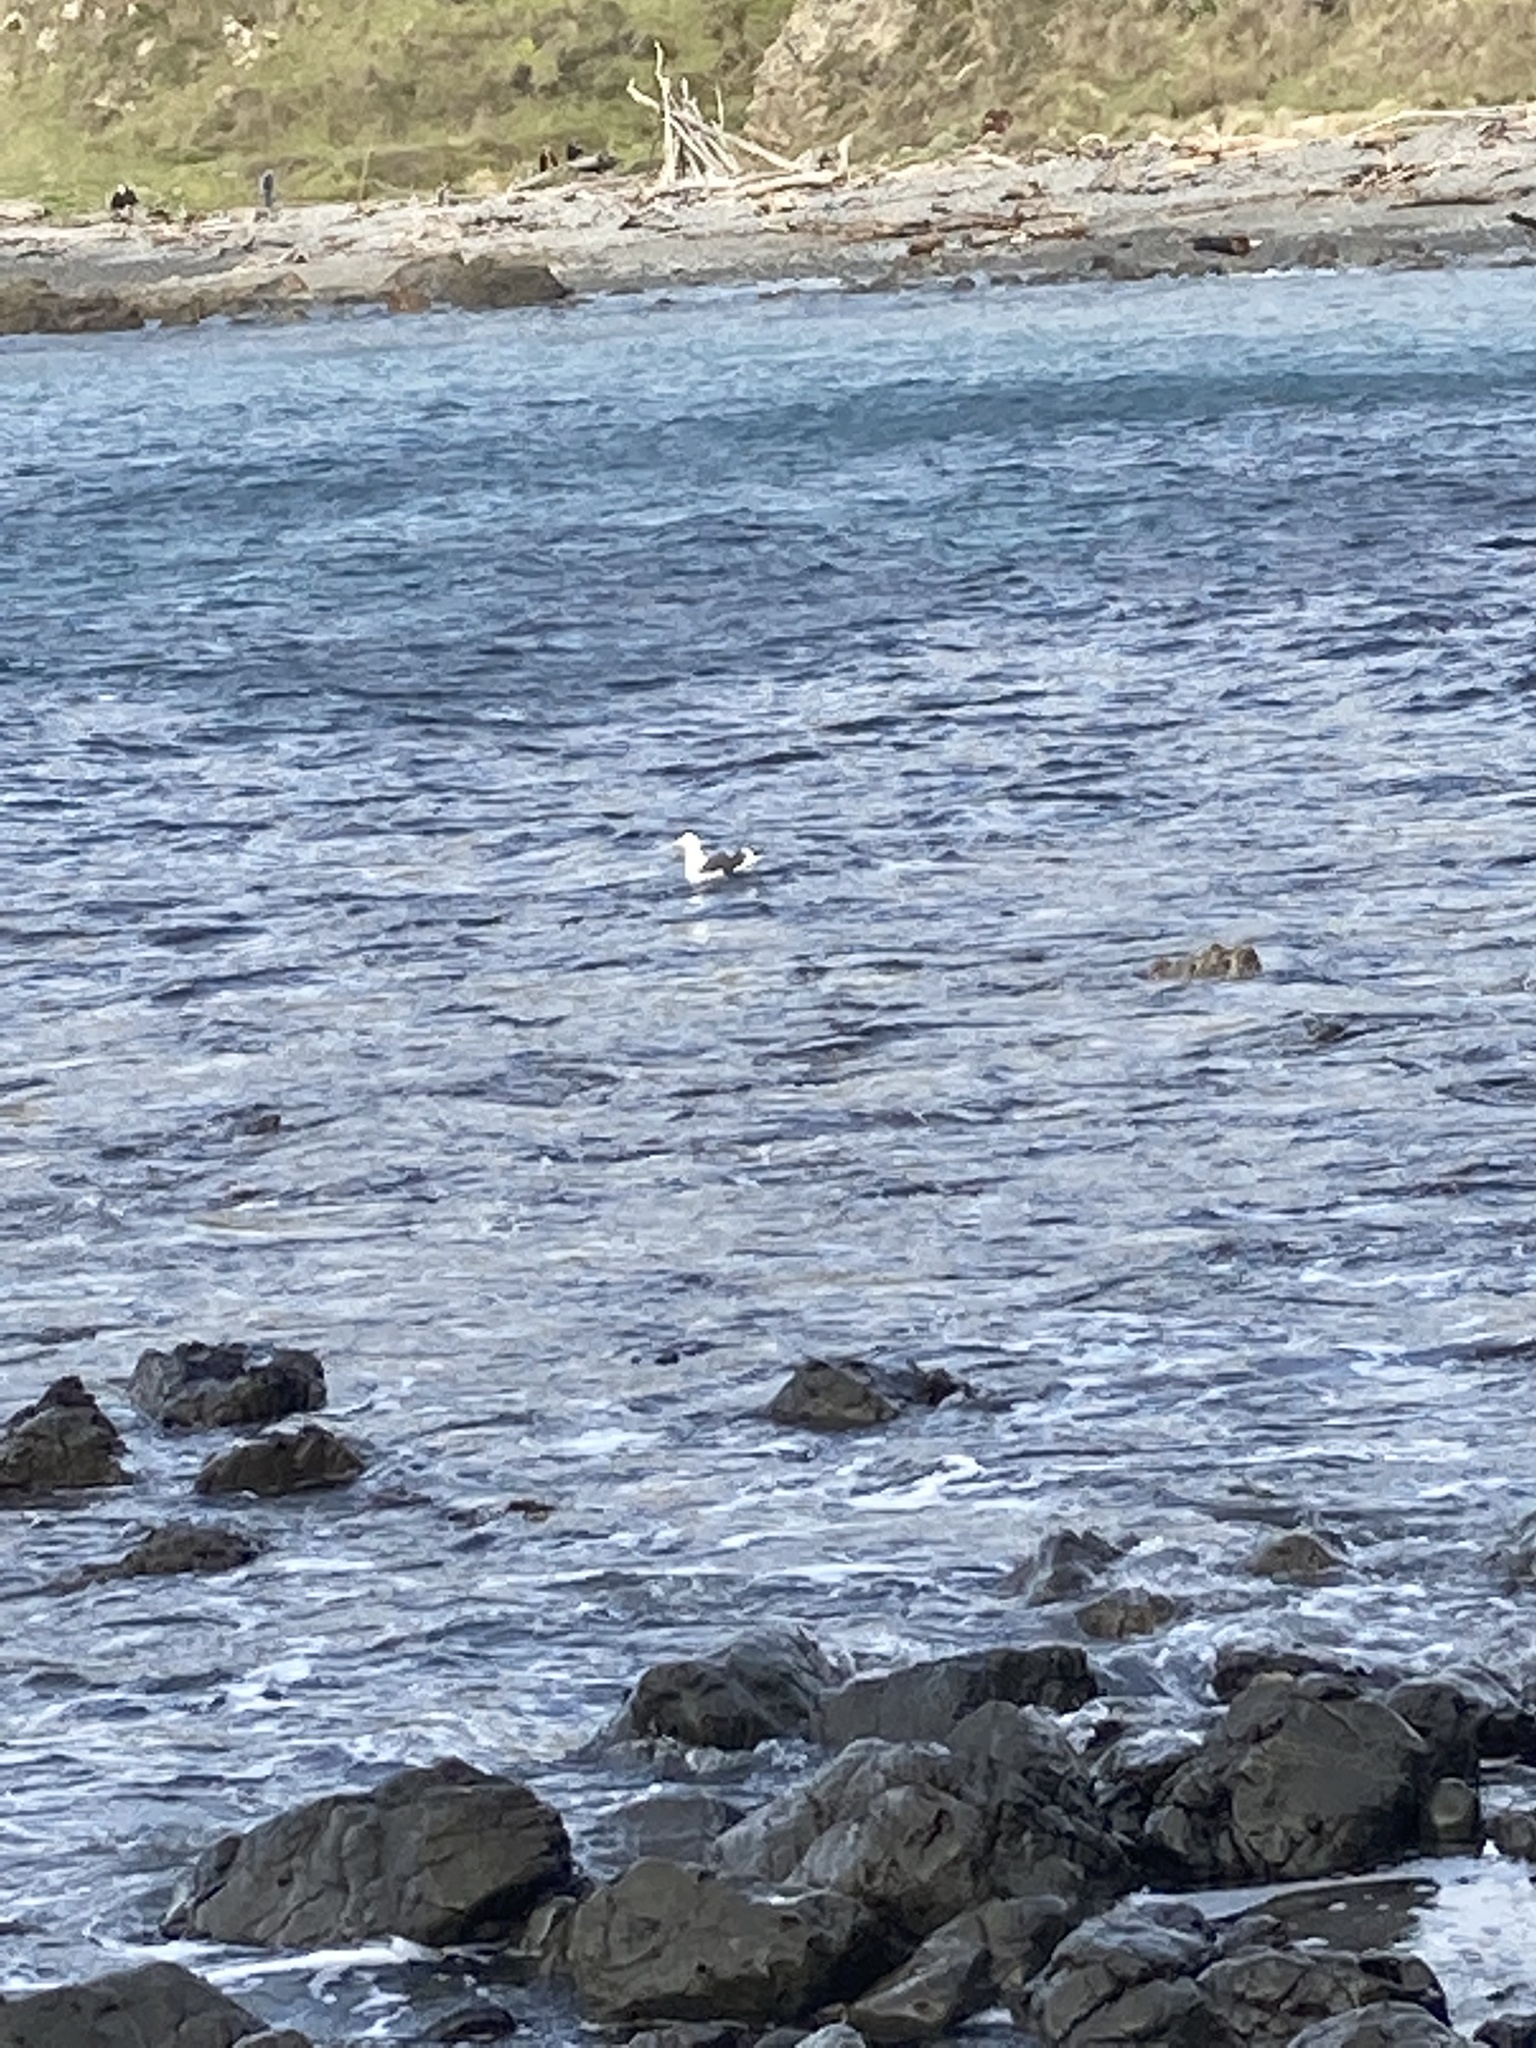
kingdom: Animalia
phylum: Chordata
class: Aves
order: Charadriiformes
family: Laridae
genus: Larus
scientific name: Larus dominicanus
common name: Kelp gull
